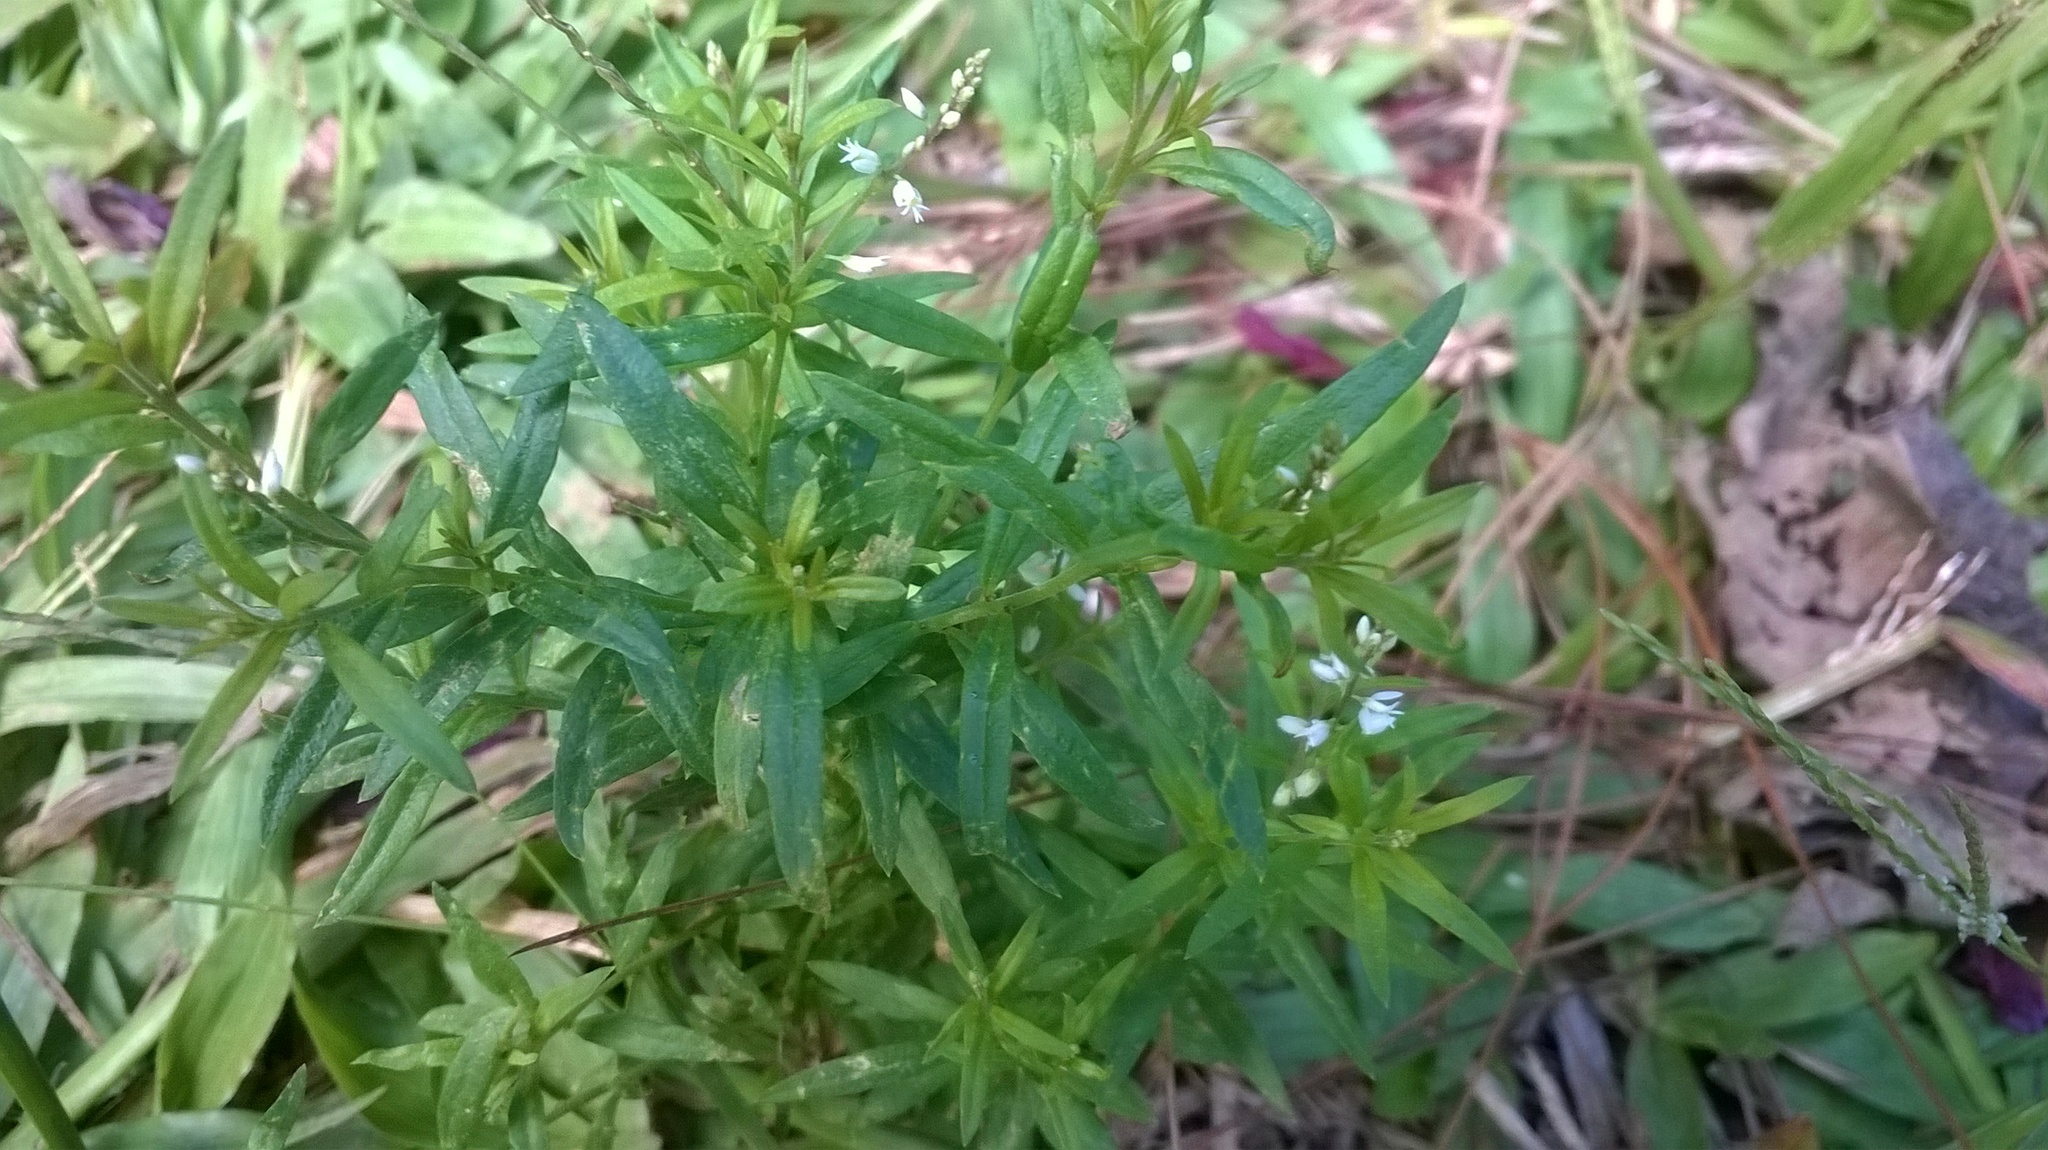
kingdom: Plantae
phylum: Tracheophyta
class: Magnoliopsida
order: Fabales
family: Polygalaceae
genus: Polygala
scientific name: Polygala paniculata
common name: Orosne
